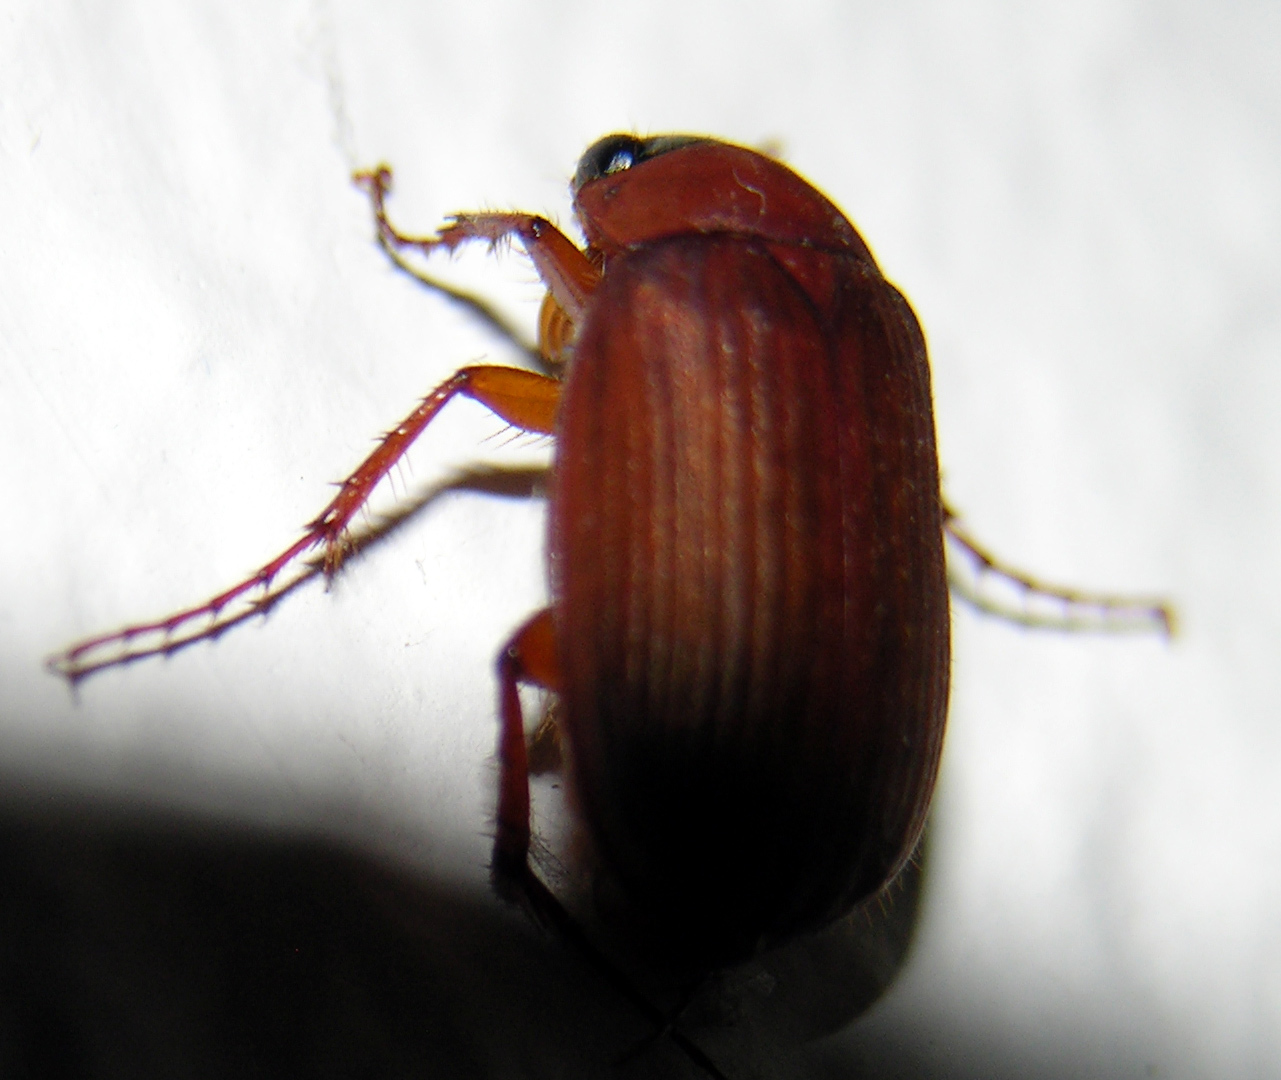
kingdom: Animalia
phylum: Arthropoda
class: Insecta
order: Coleoptera
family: Scarabaeidae
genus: Serica
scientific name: Serica brunnea
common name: Brown chafer
